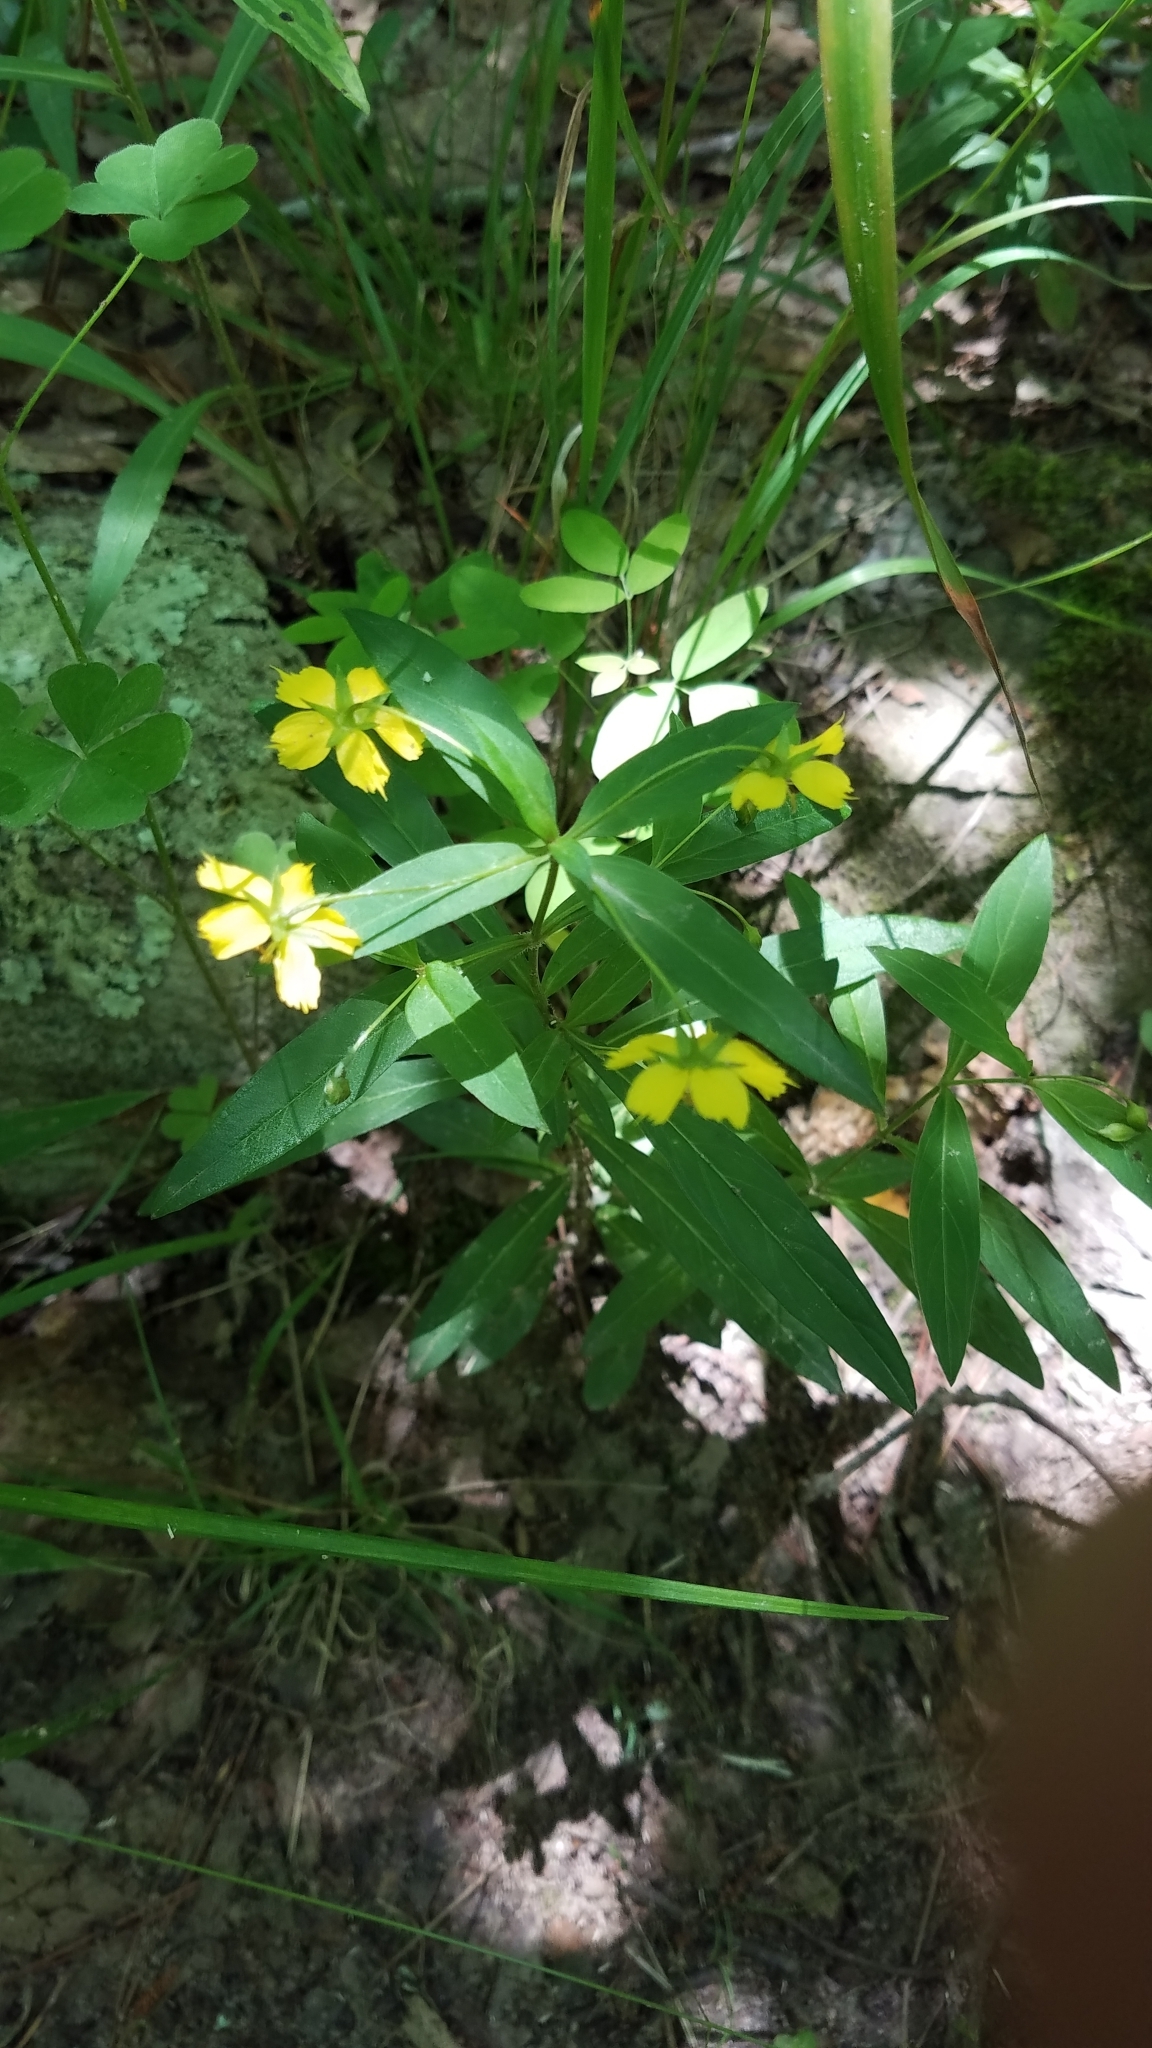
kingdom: Plantae
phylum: Tracheophyta
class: Magnoliopsida
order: Ericales
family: Primulaceae
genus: Lysimachia
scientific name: Lysimachia lanceolata
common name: Lance-leaved loosestrife
